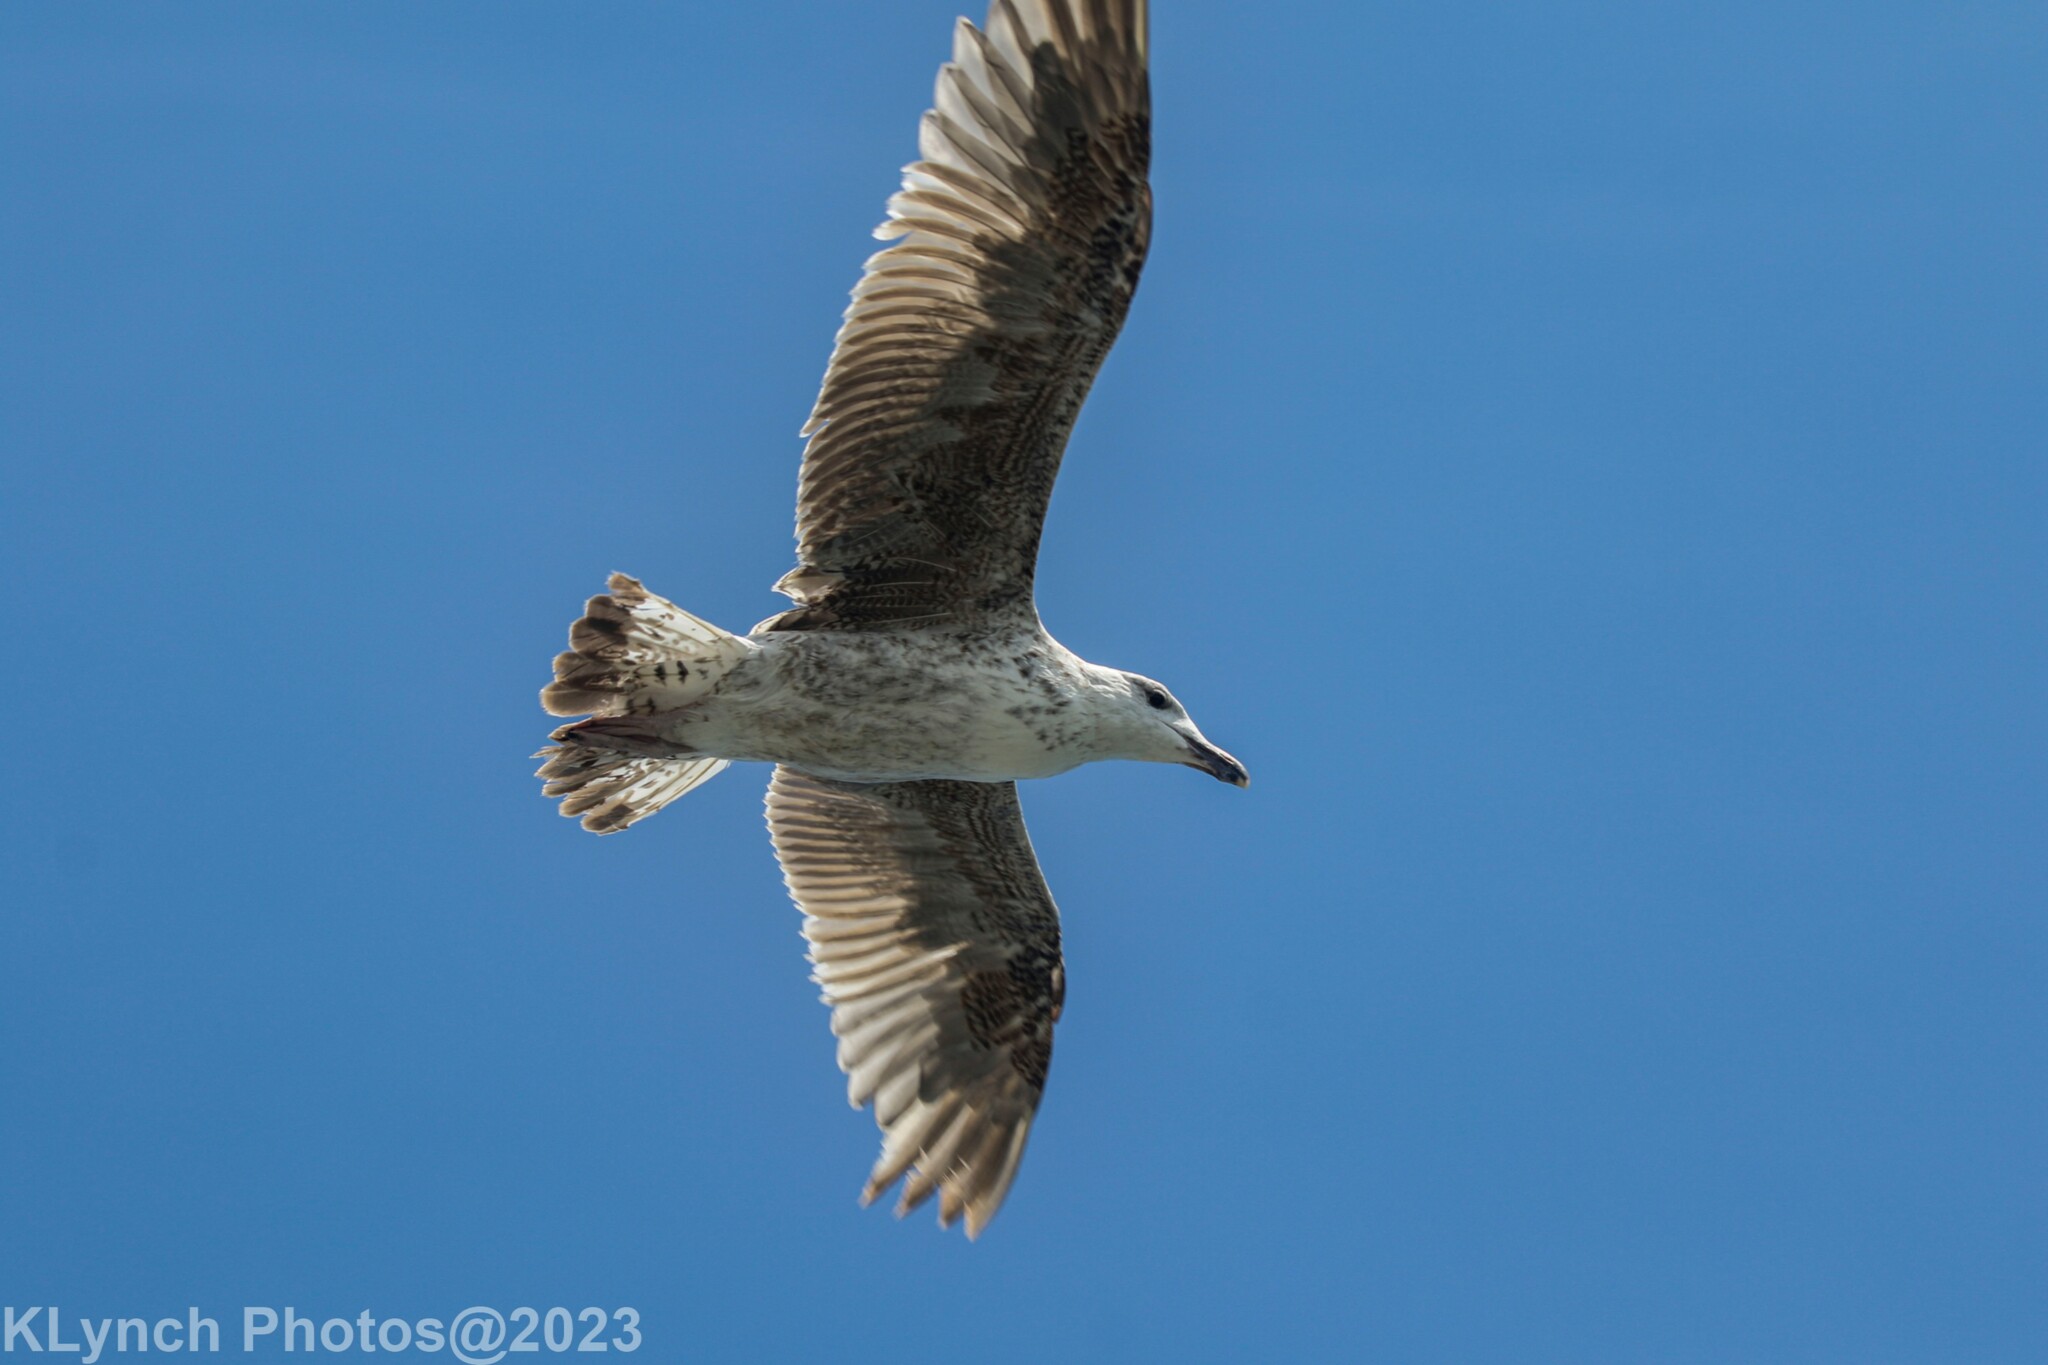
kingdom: Animalia
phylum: Chordata
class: Aves
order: Charadriiformes
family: Laridae
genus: Larus
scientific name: Larus marinus
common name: Great black-backed gull
